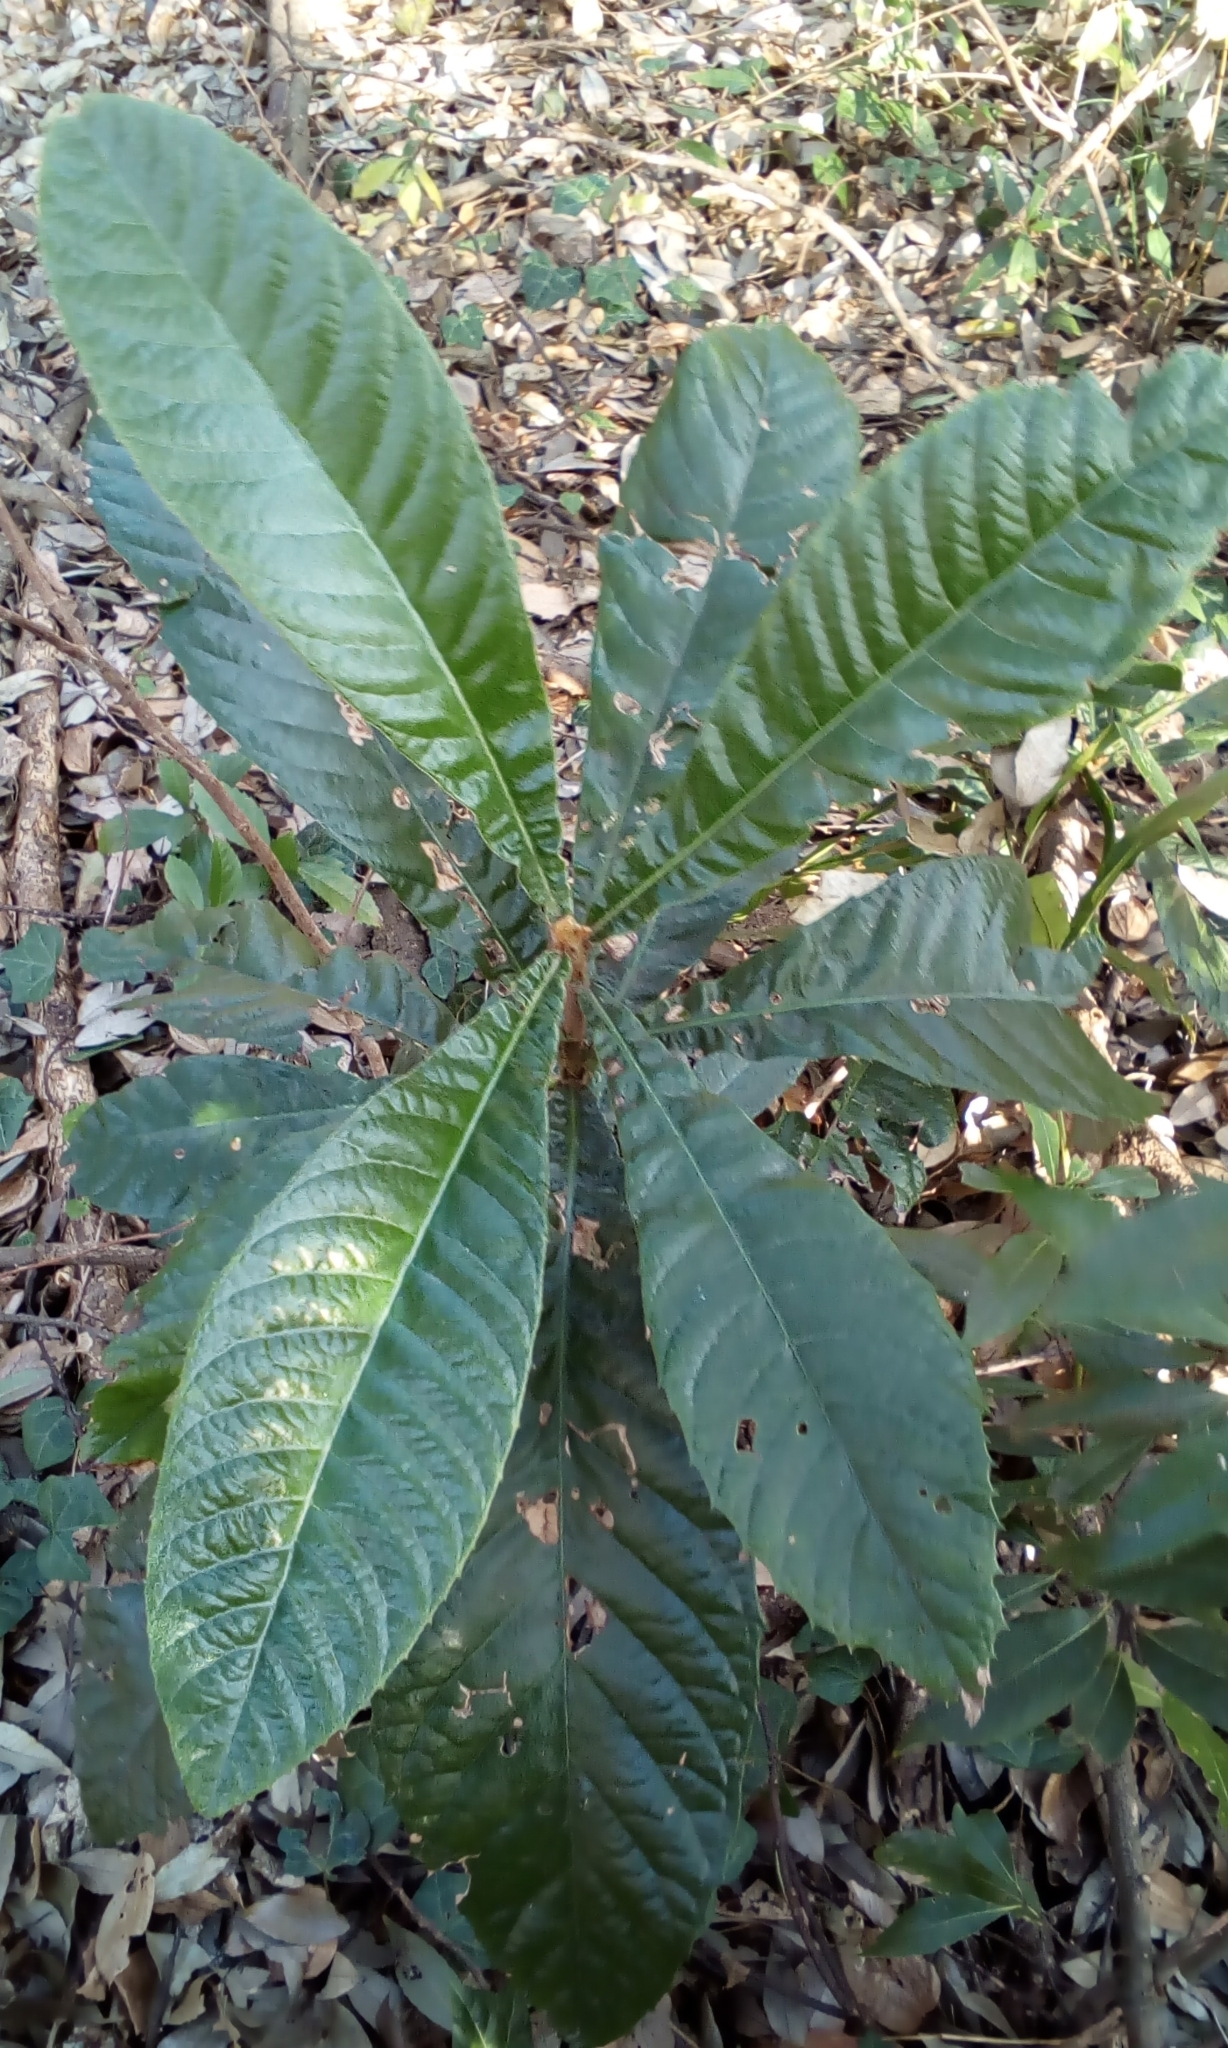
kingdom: Plantae
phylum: Tracheophyta
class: Magnoliopsida
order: Rosales
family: Rosaceae
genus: Rhaphiolepis
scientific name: Rhaphiolepis bibas
